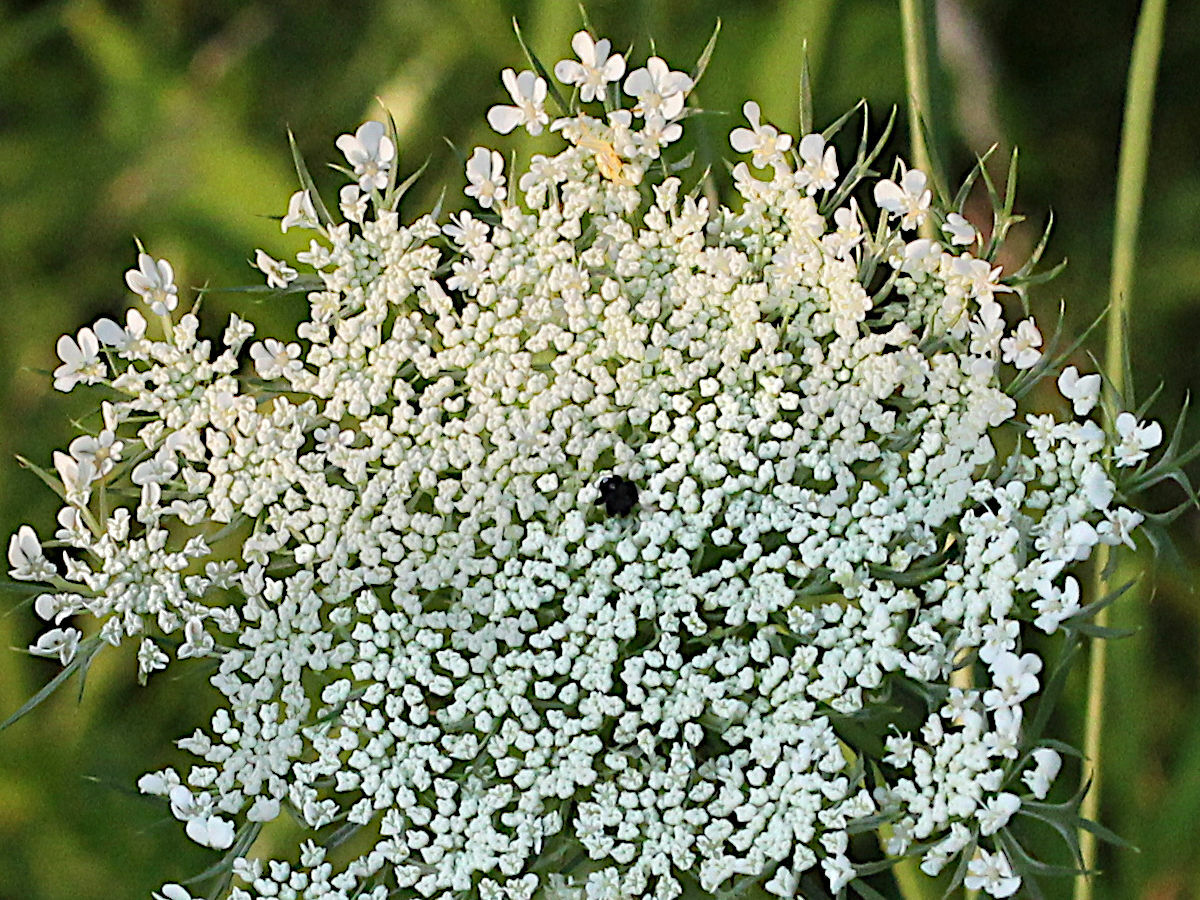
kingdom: Plantae
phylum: Tracheophyta
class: Magnoliopsida
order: Apiales
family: Apiaceae
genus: Daucus
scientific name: Daucus carota
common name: Wild carrot
